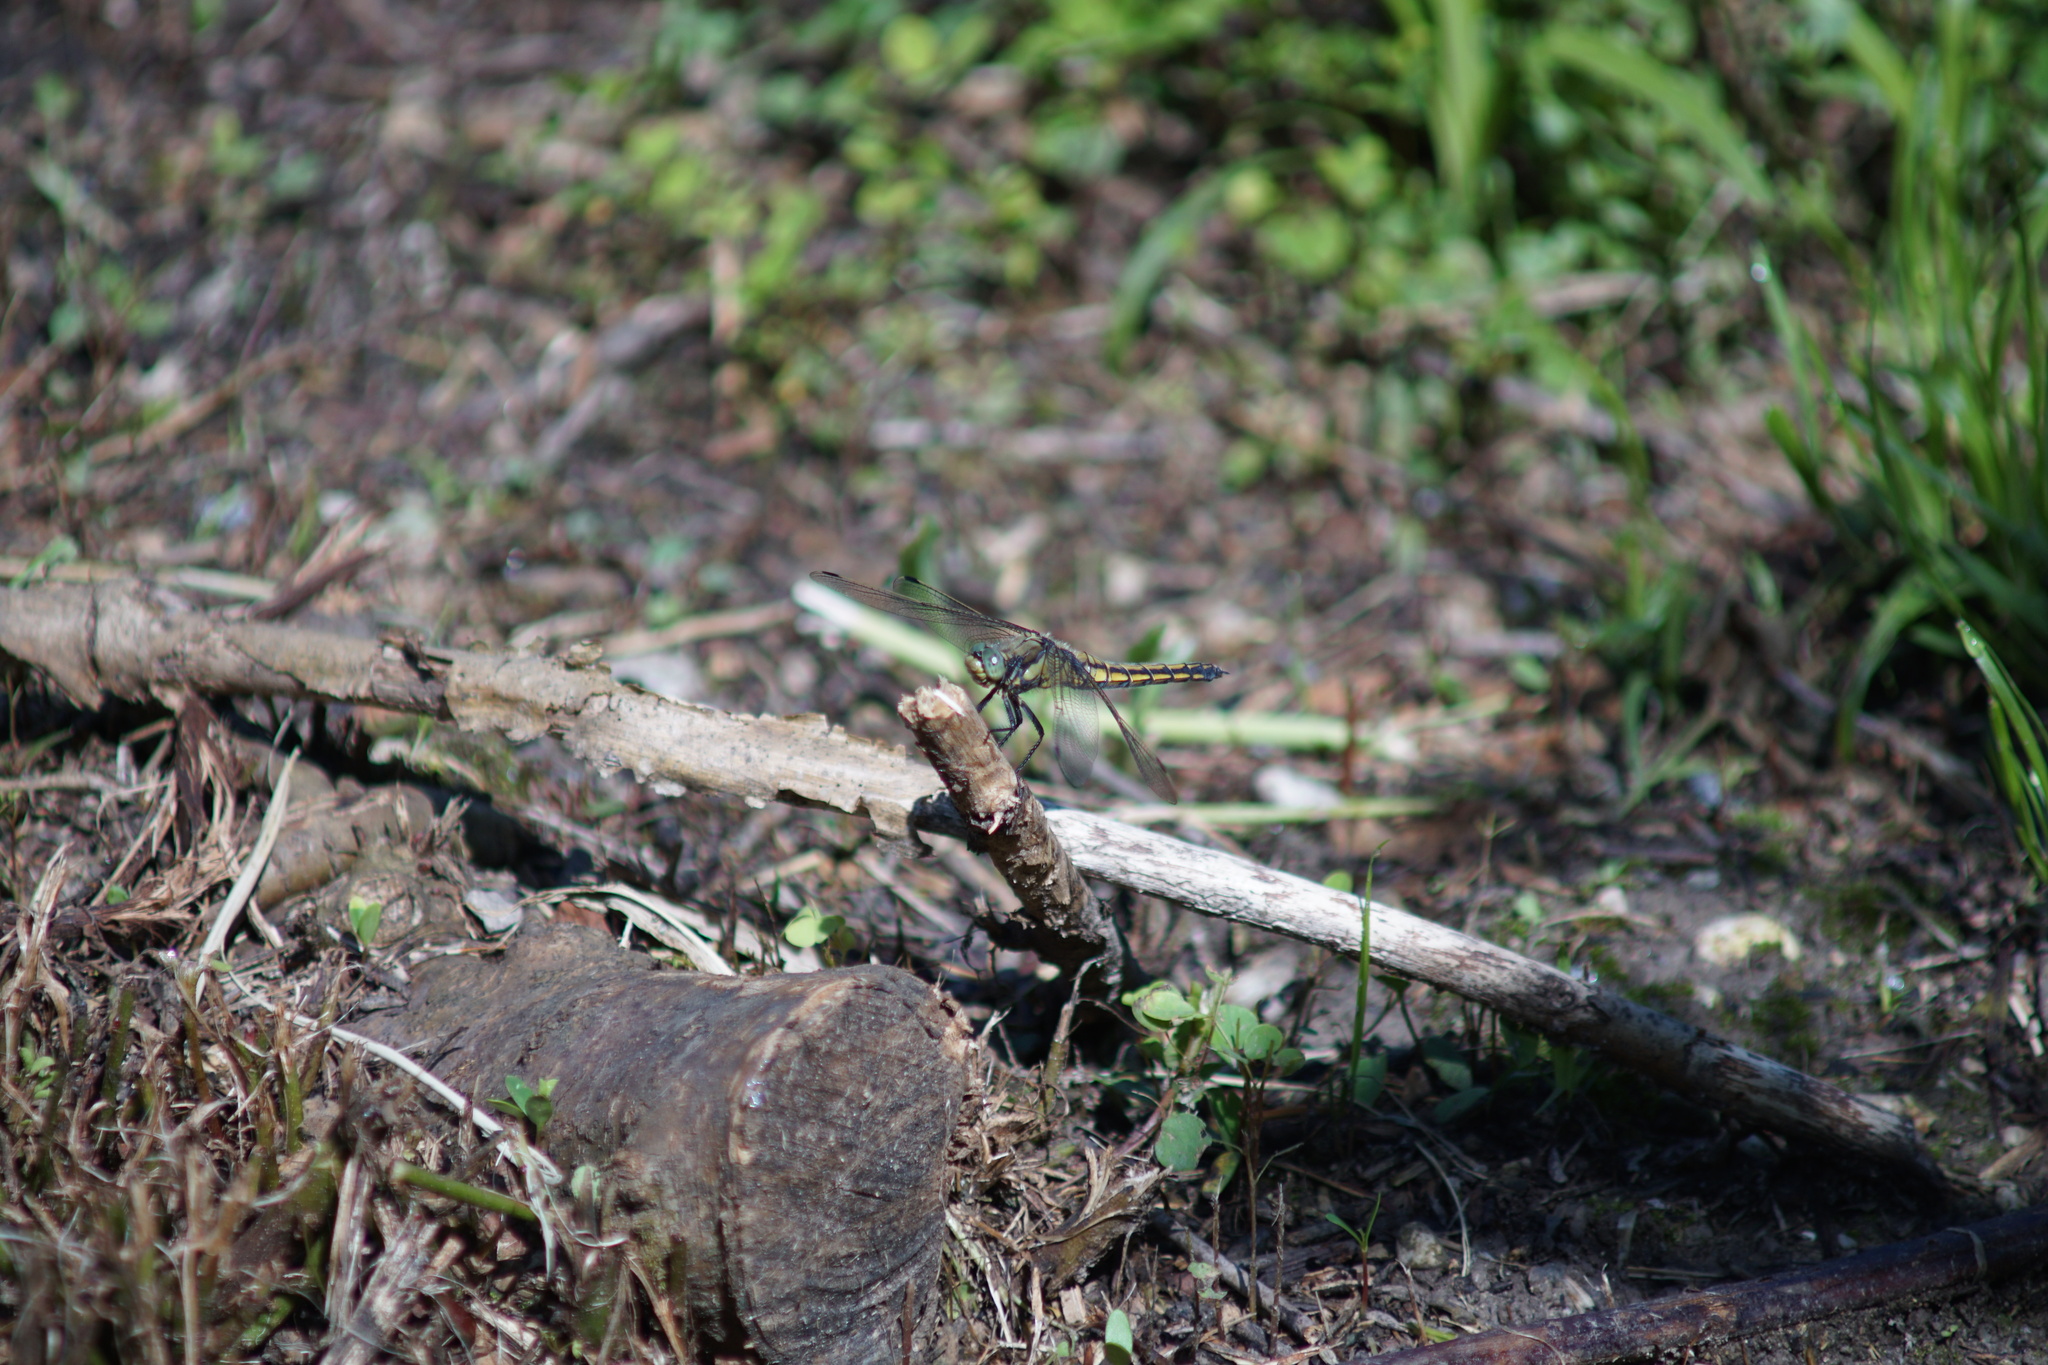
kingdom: Animalia
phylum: Arthropoda
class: Insecta
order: Odonata
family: Libellulidae
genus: Orthetrum
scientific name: Orthetrum cancellatum
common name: Black-tailed skimmer
